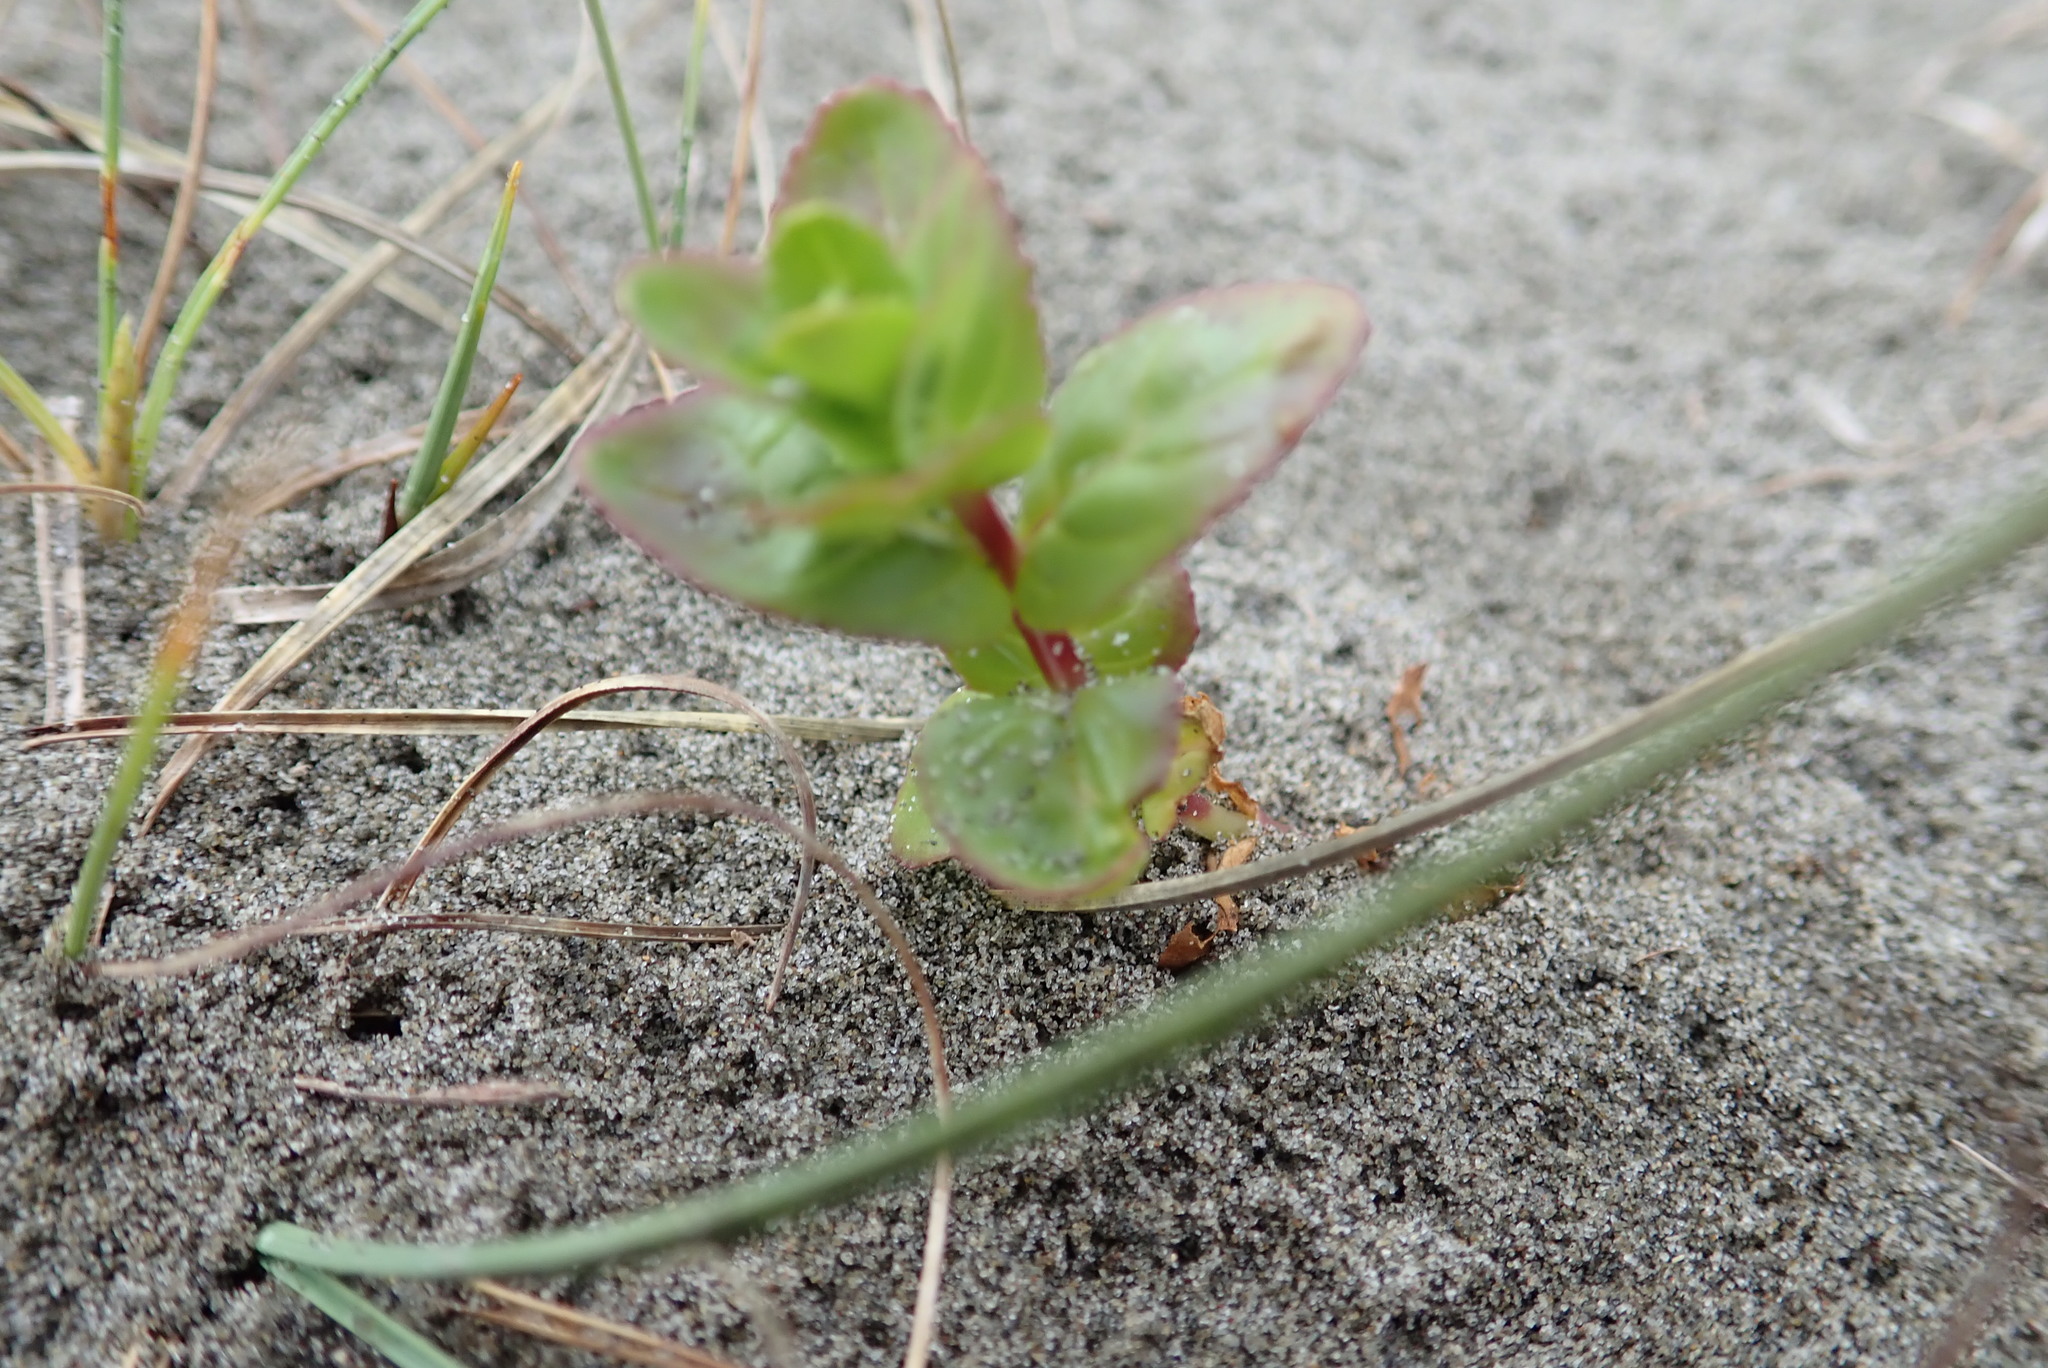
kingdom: Plantae
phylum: Tracheophyta
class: Magnoliopsida
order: Myrtales
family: Onagraceae
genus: Epilobium
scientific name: Epilobium billardiereanum
